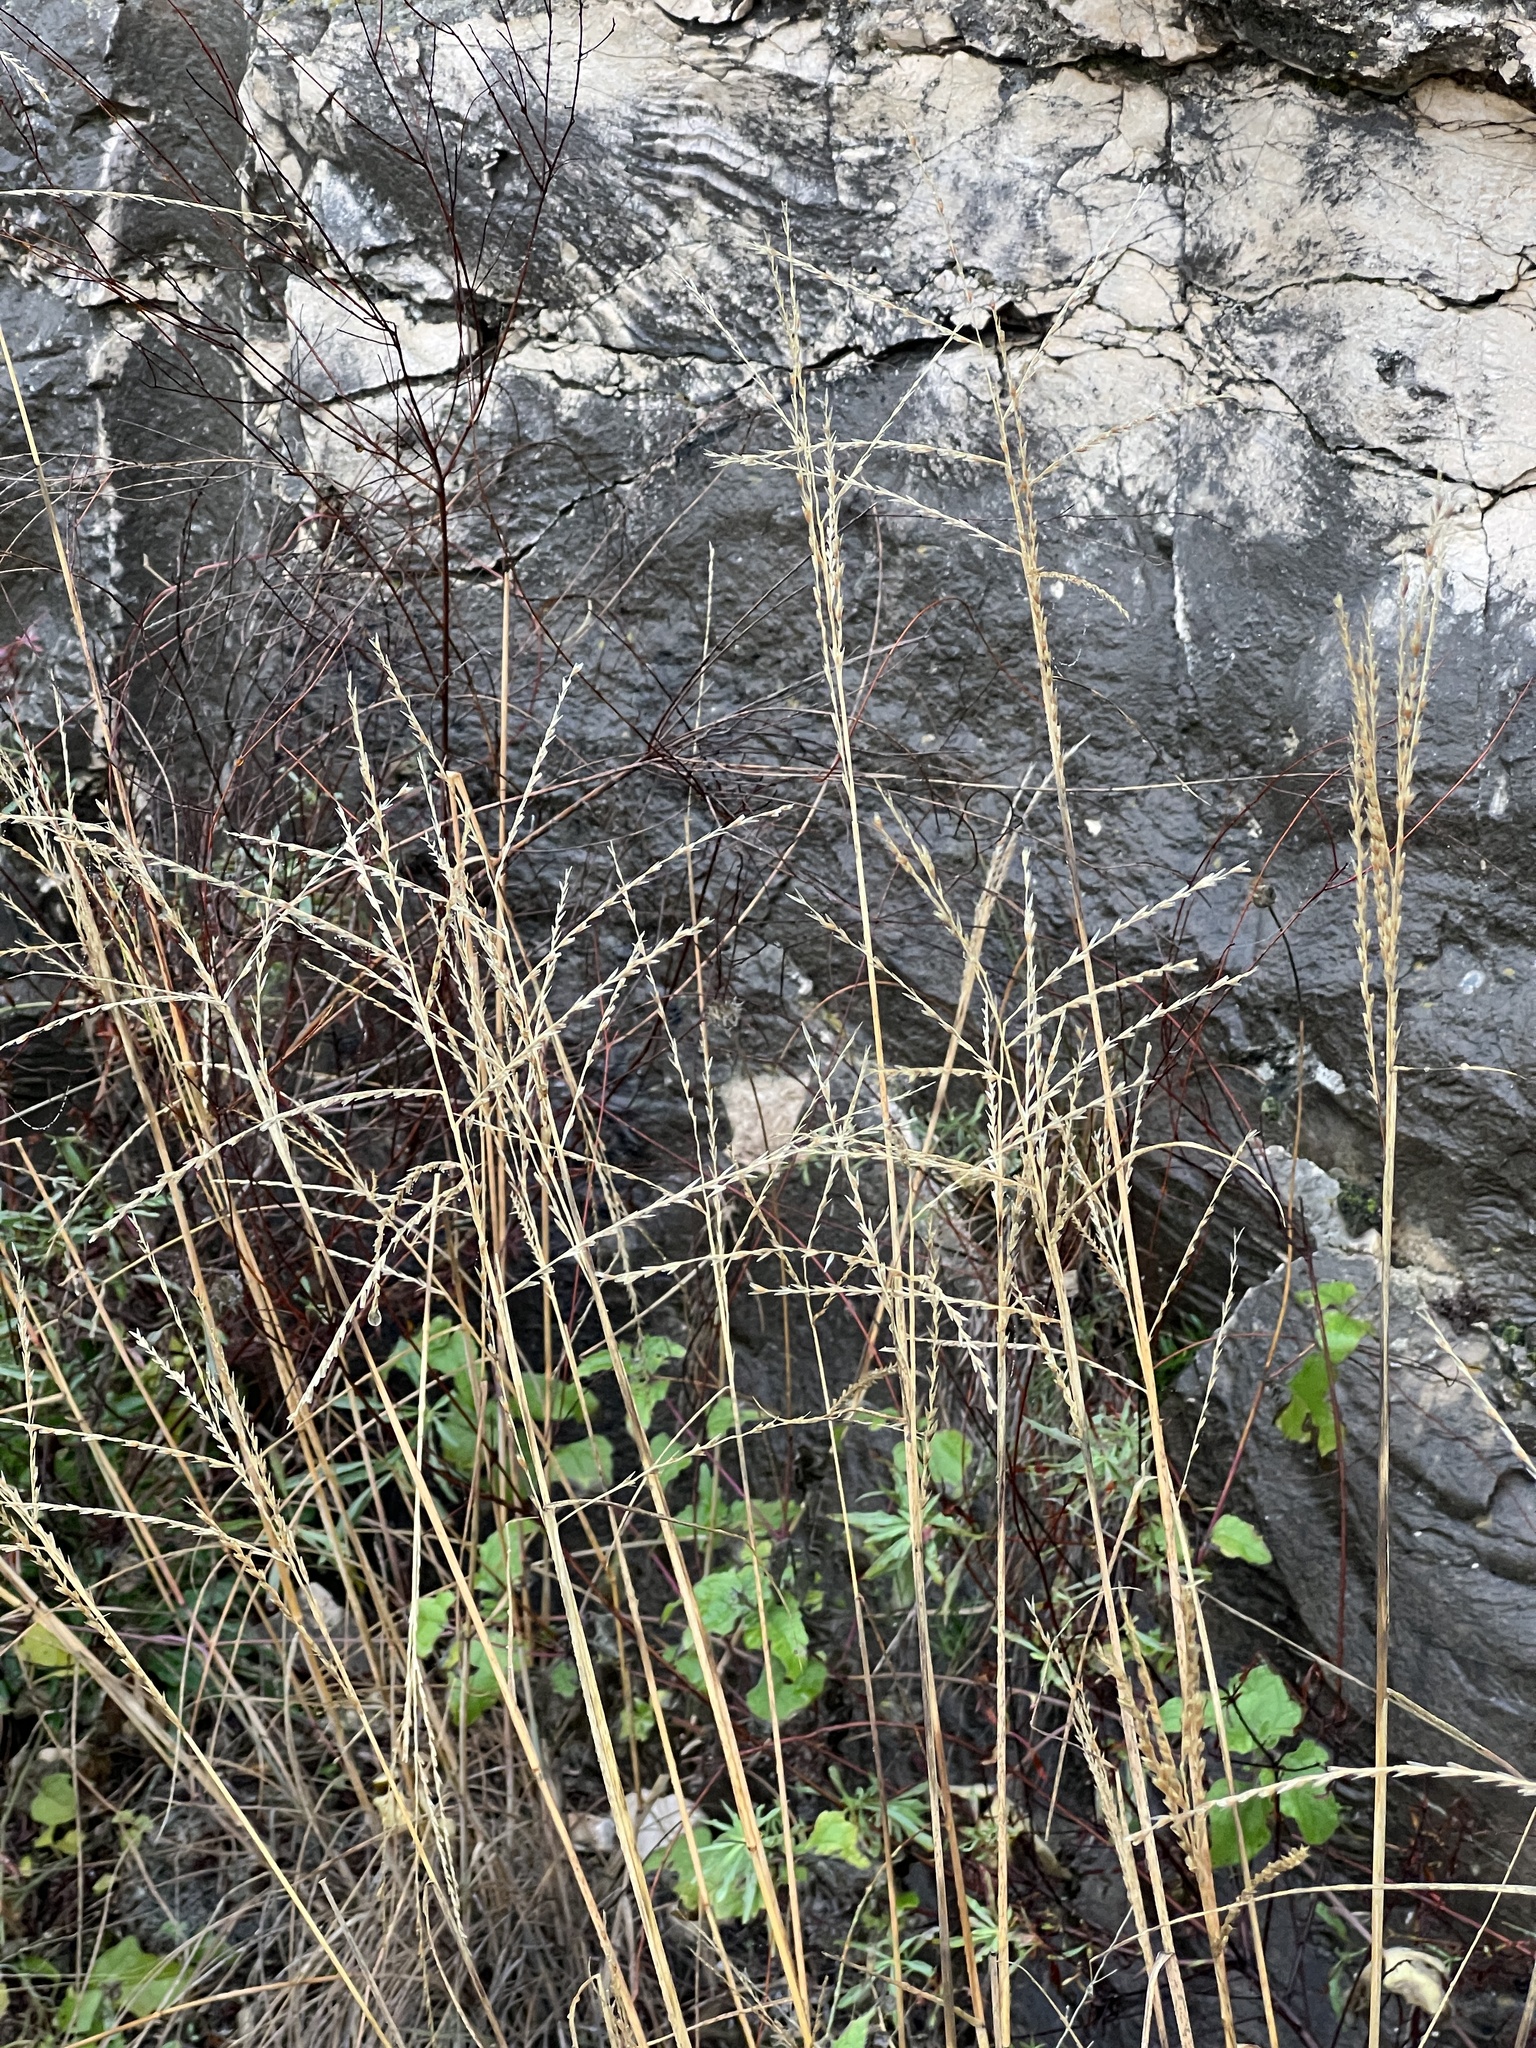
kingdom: Plantae
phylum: Tracheophyta
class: Liliopsida
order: Poales
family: Poaceae
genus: Disakisperma
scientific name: Disakisperma dubium
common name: Green sprangletop
